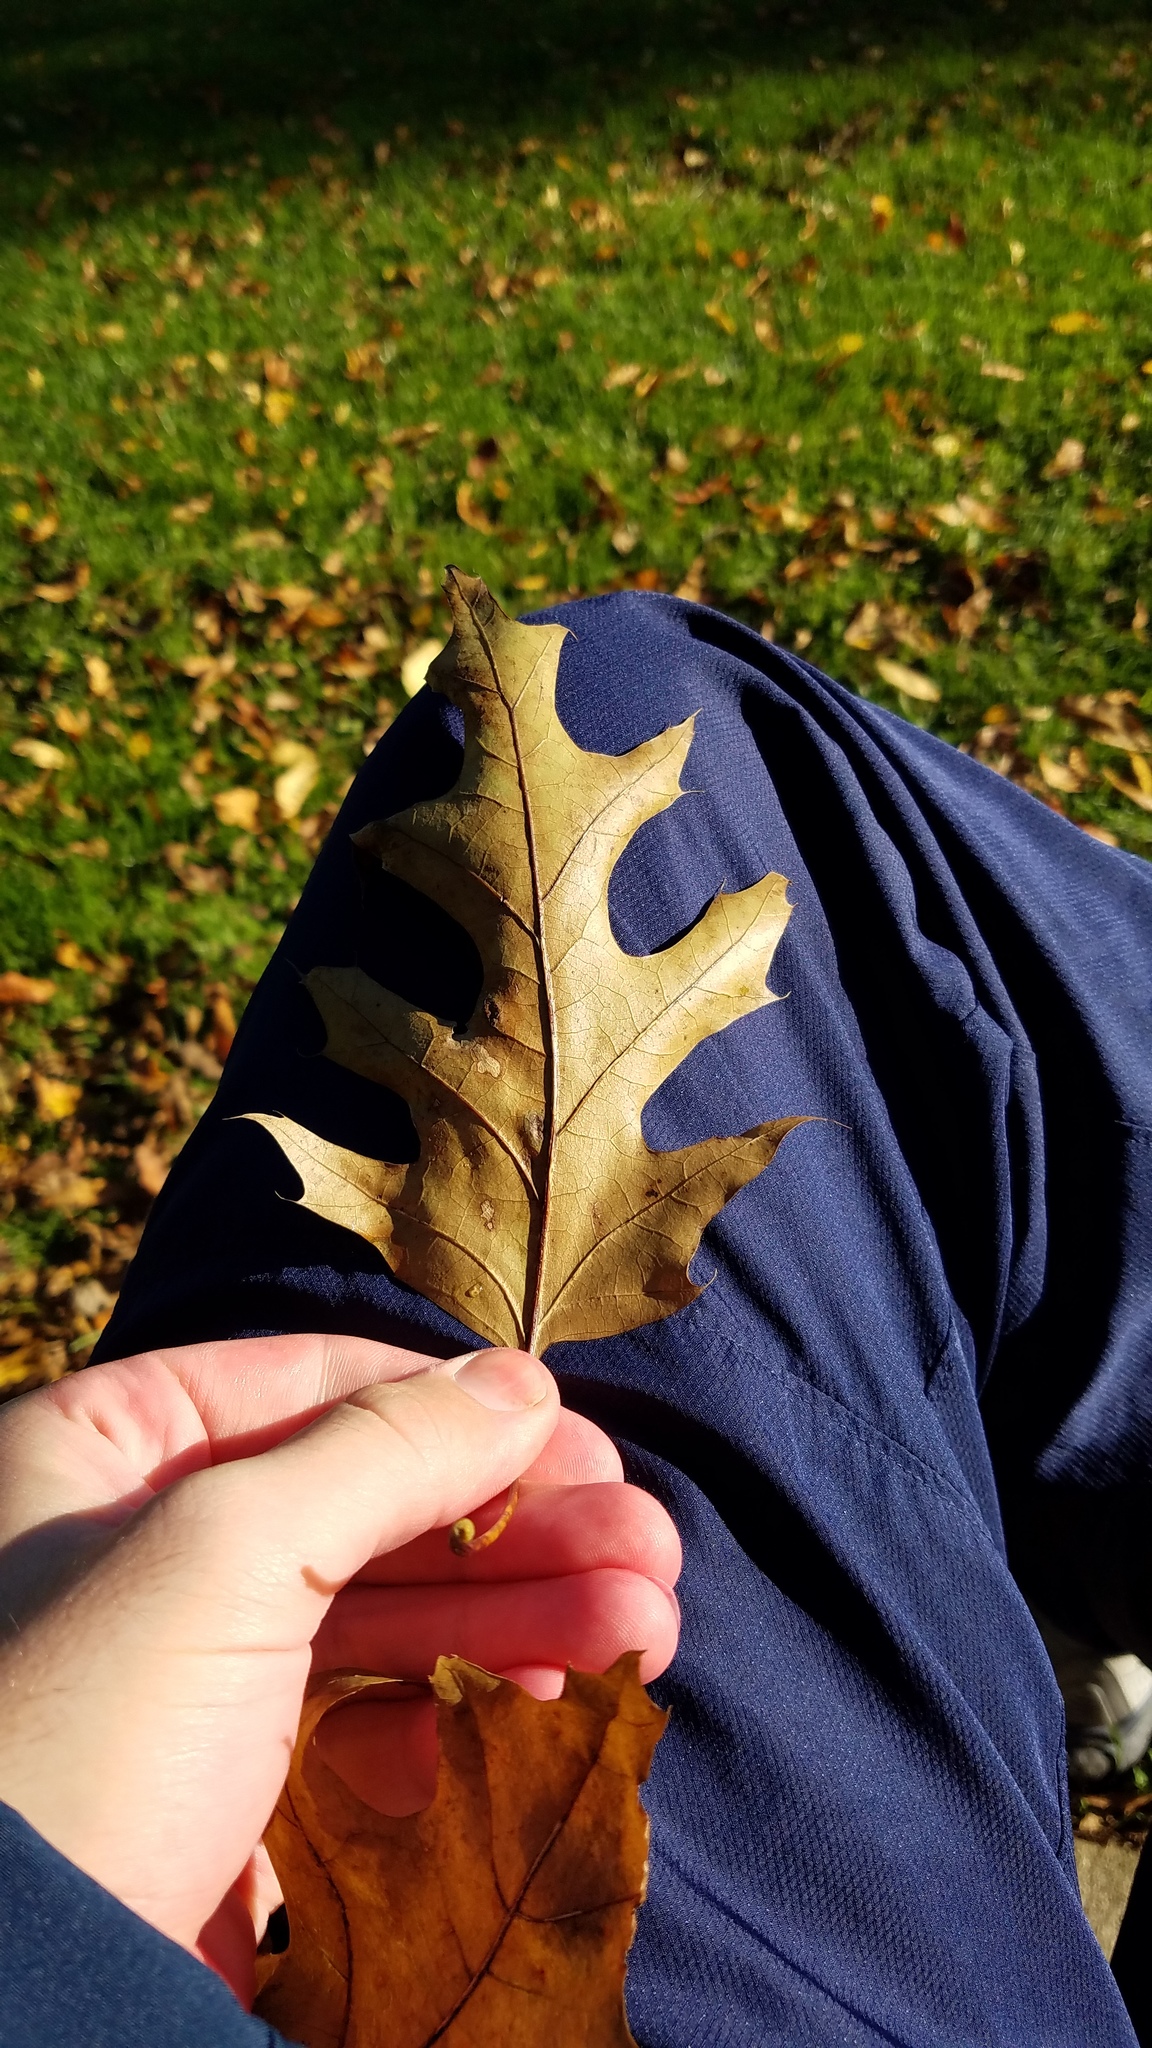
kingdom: Animalia
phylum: Arthropoda
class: Insecta
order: Diptera
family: Cecidomyiidae
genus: Polystepha
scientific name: Polystepha pilulae
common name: Oak leaf gall midge
